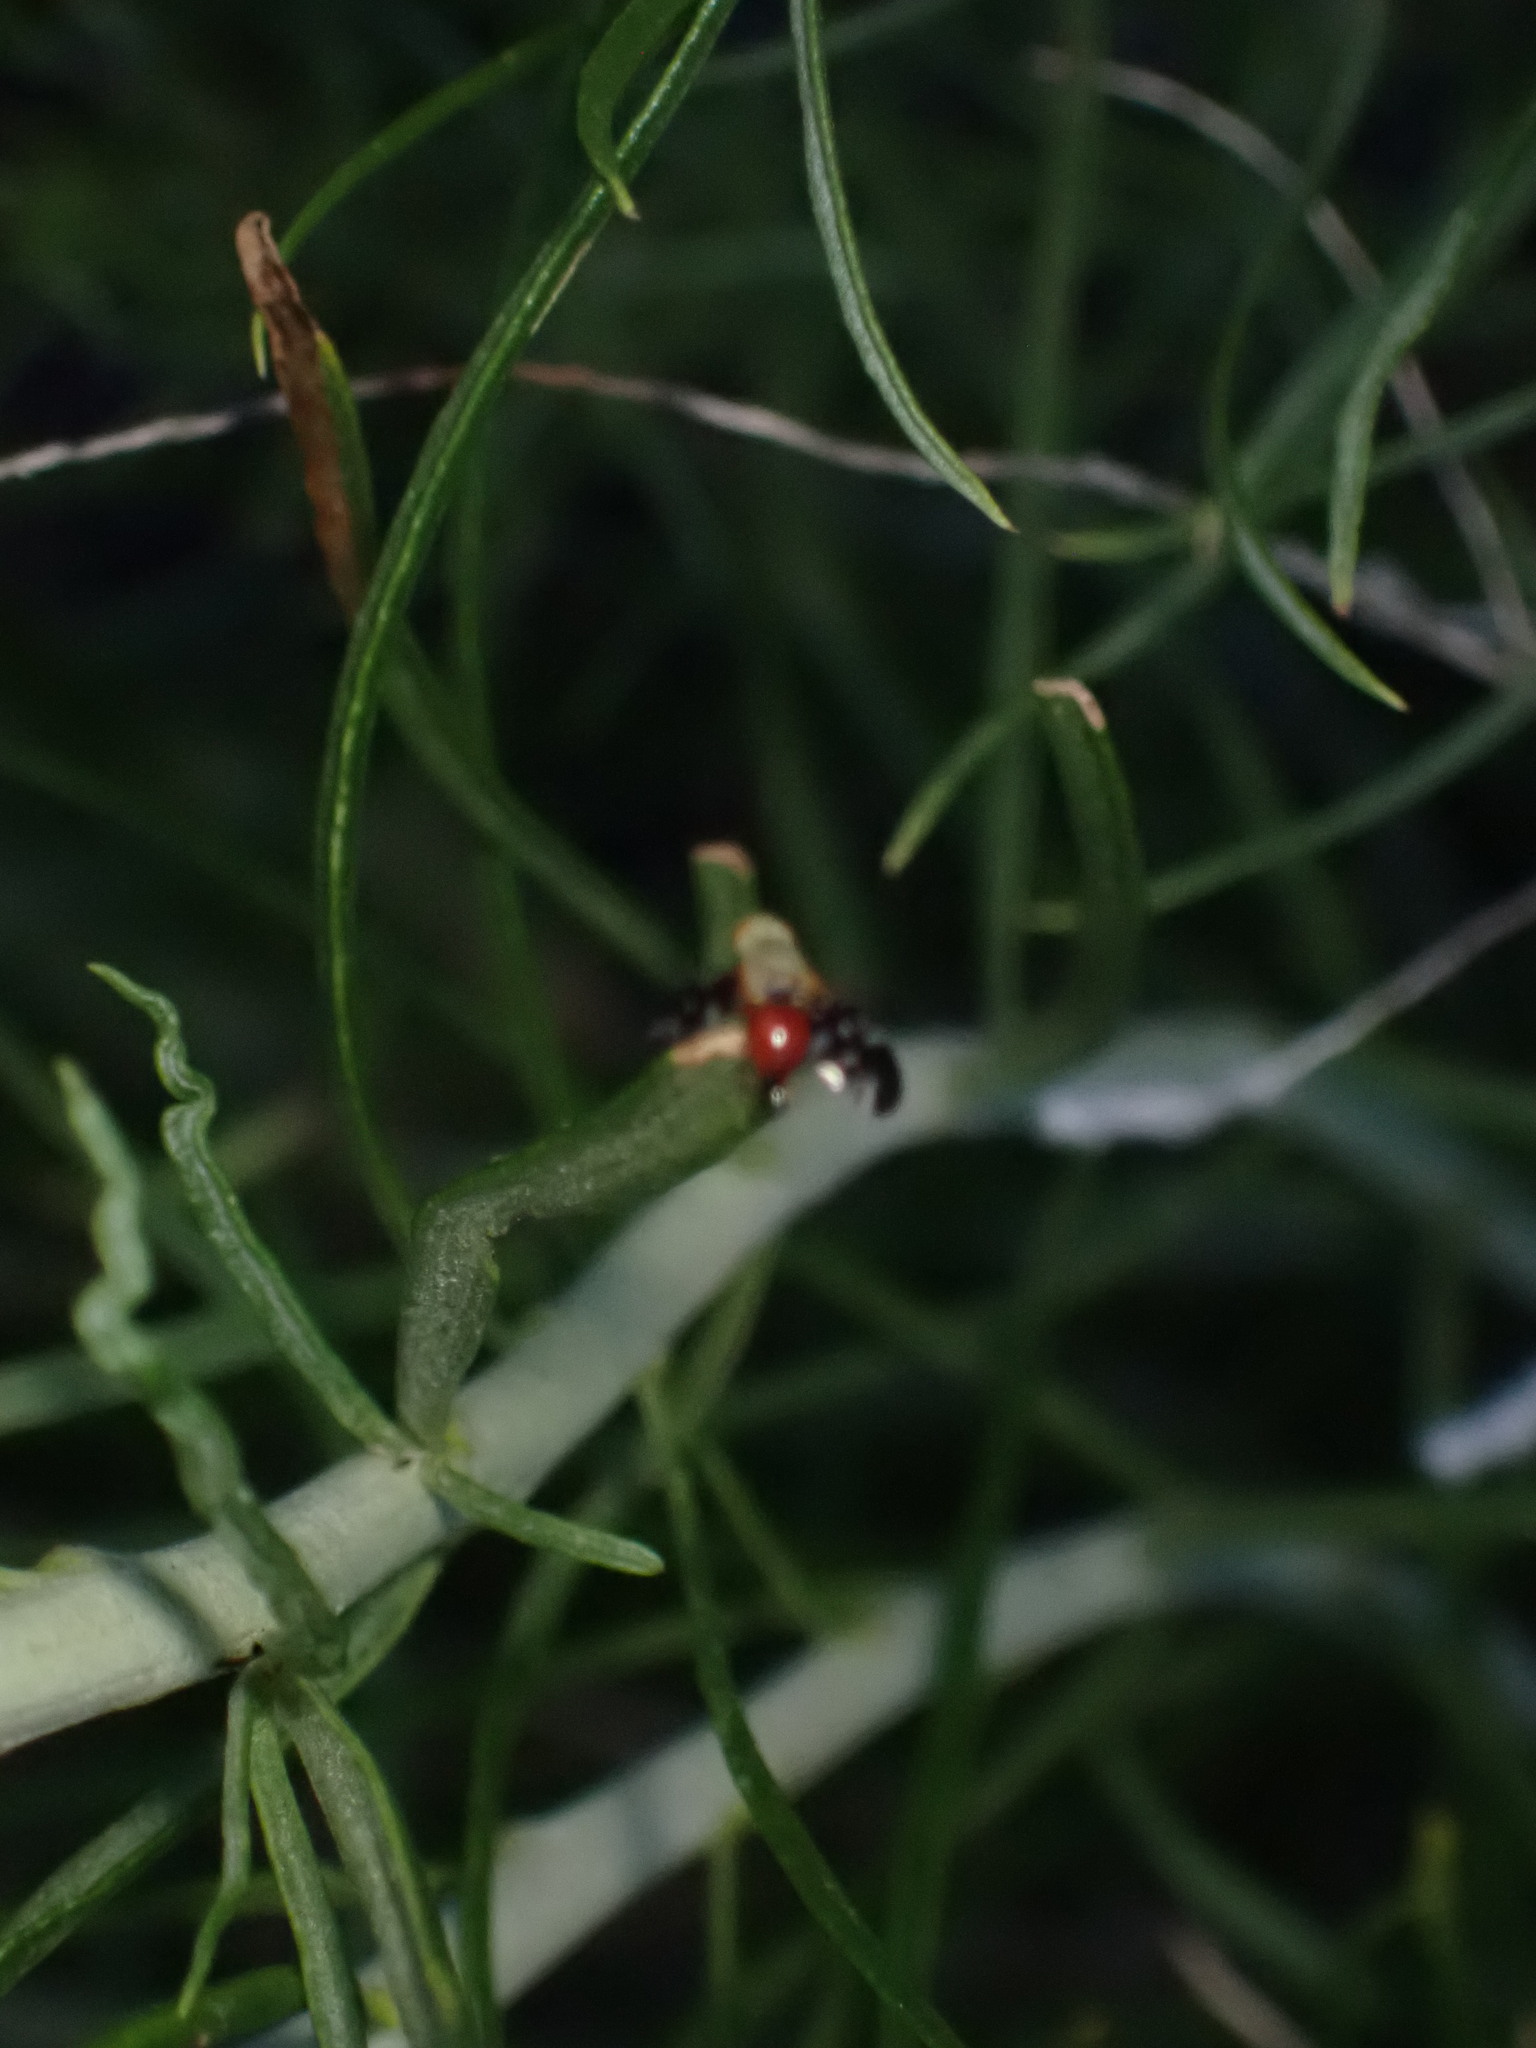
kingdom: Animalia
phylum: Arthropoda
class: Insecta
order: Diptera
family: Tephritidae
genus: Aciurina
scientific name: Aciurina ferruginea
